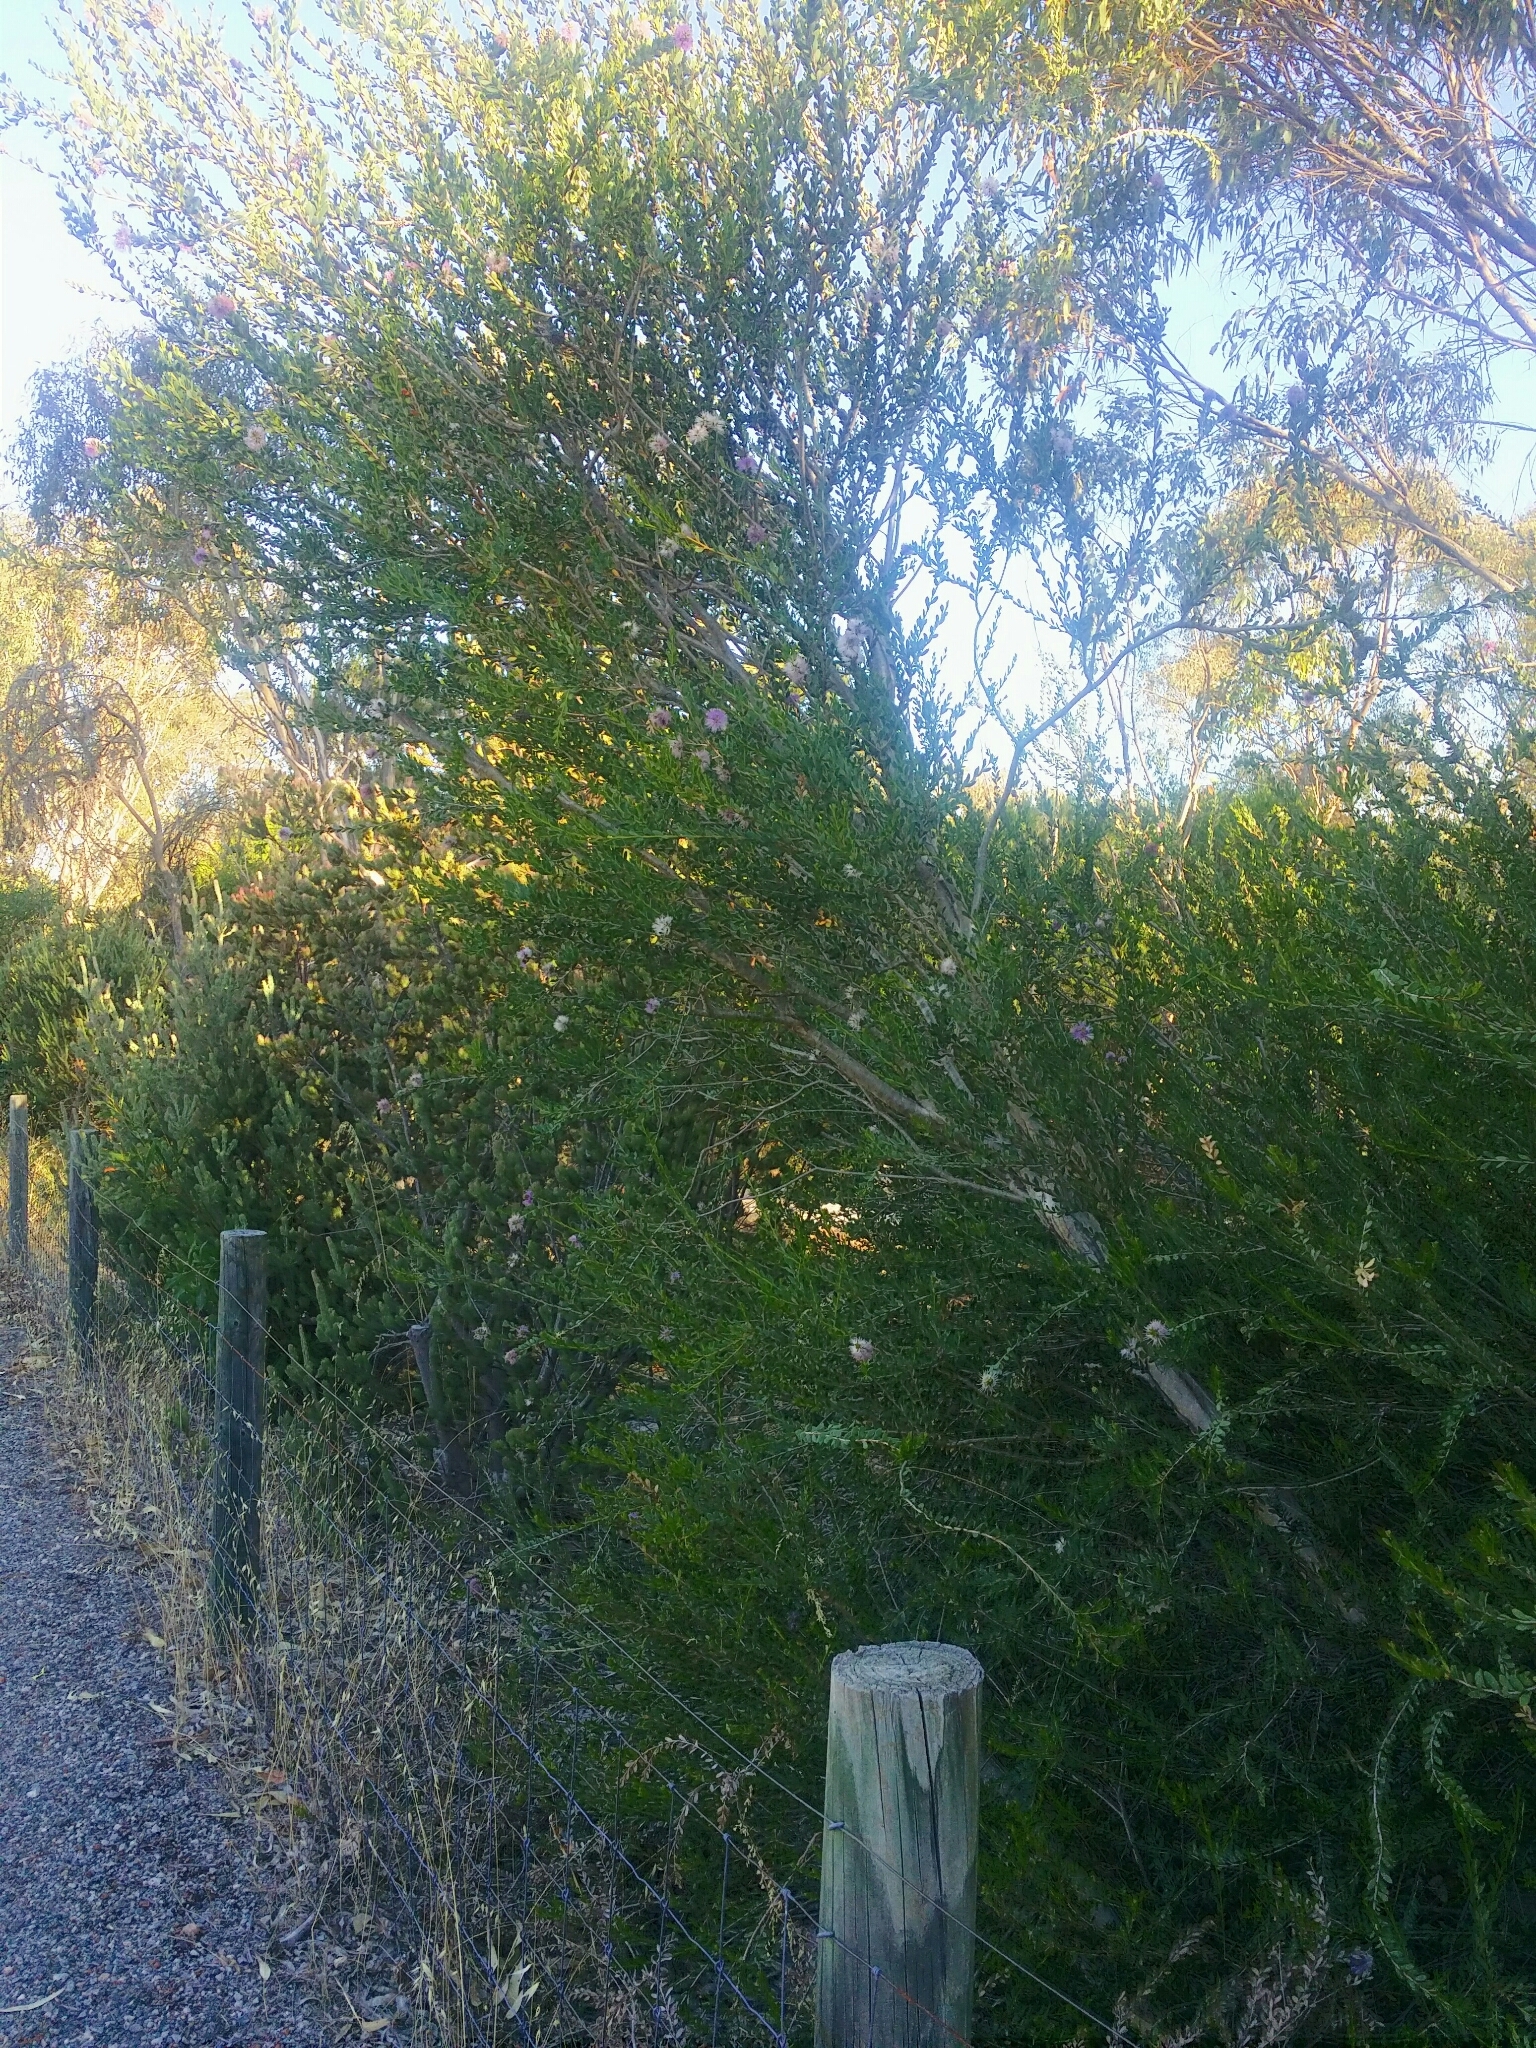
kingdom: Plantae
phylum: Tracheophyta
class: Magnoliopsida
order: Myrtales
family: Myrtaceae
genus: Melaleuca
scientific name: Melaleuca nesophila
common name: Mauve honey myrtle
